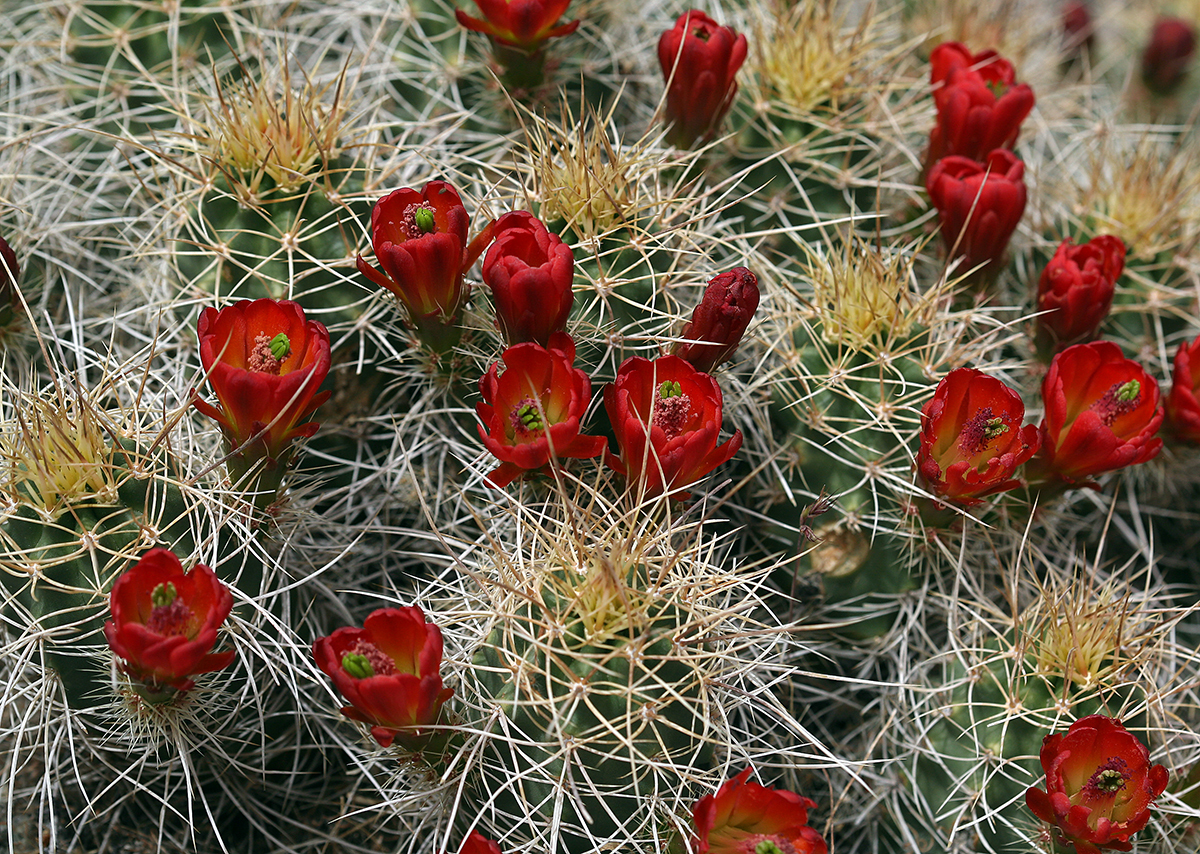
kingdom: Plantae
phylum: Tracheophyta
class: Magnoliopsida
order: Caryophyllales
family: Cactaceae
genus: Echinocereus
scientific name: Echinocereus triglochidiatus
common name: Claretcup hedgehog
